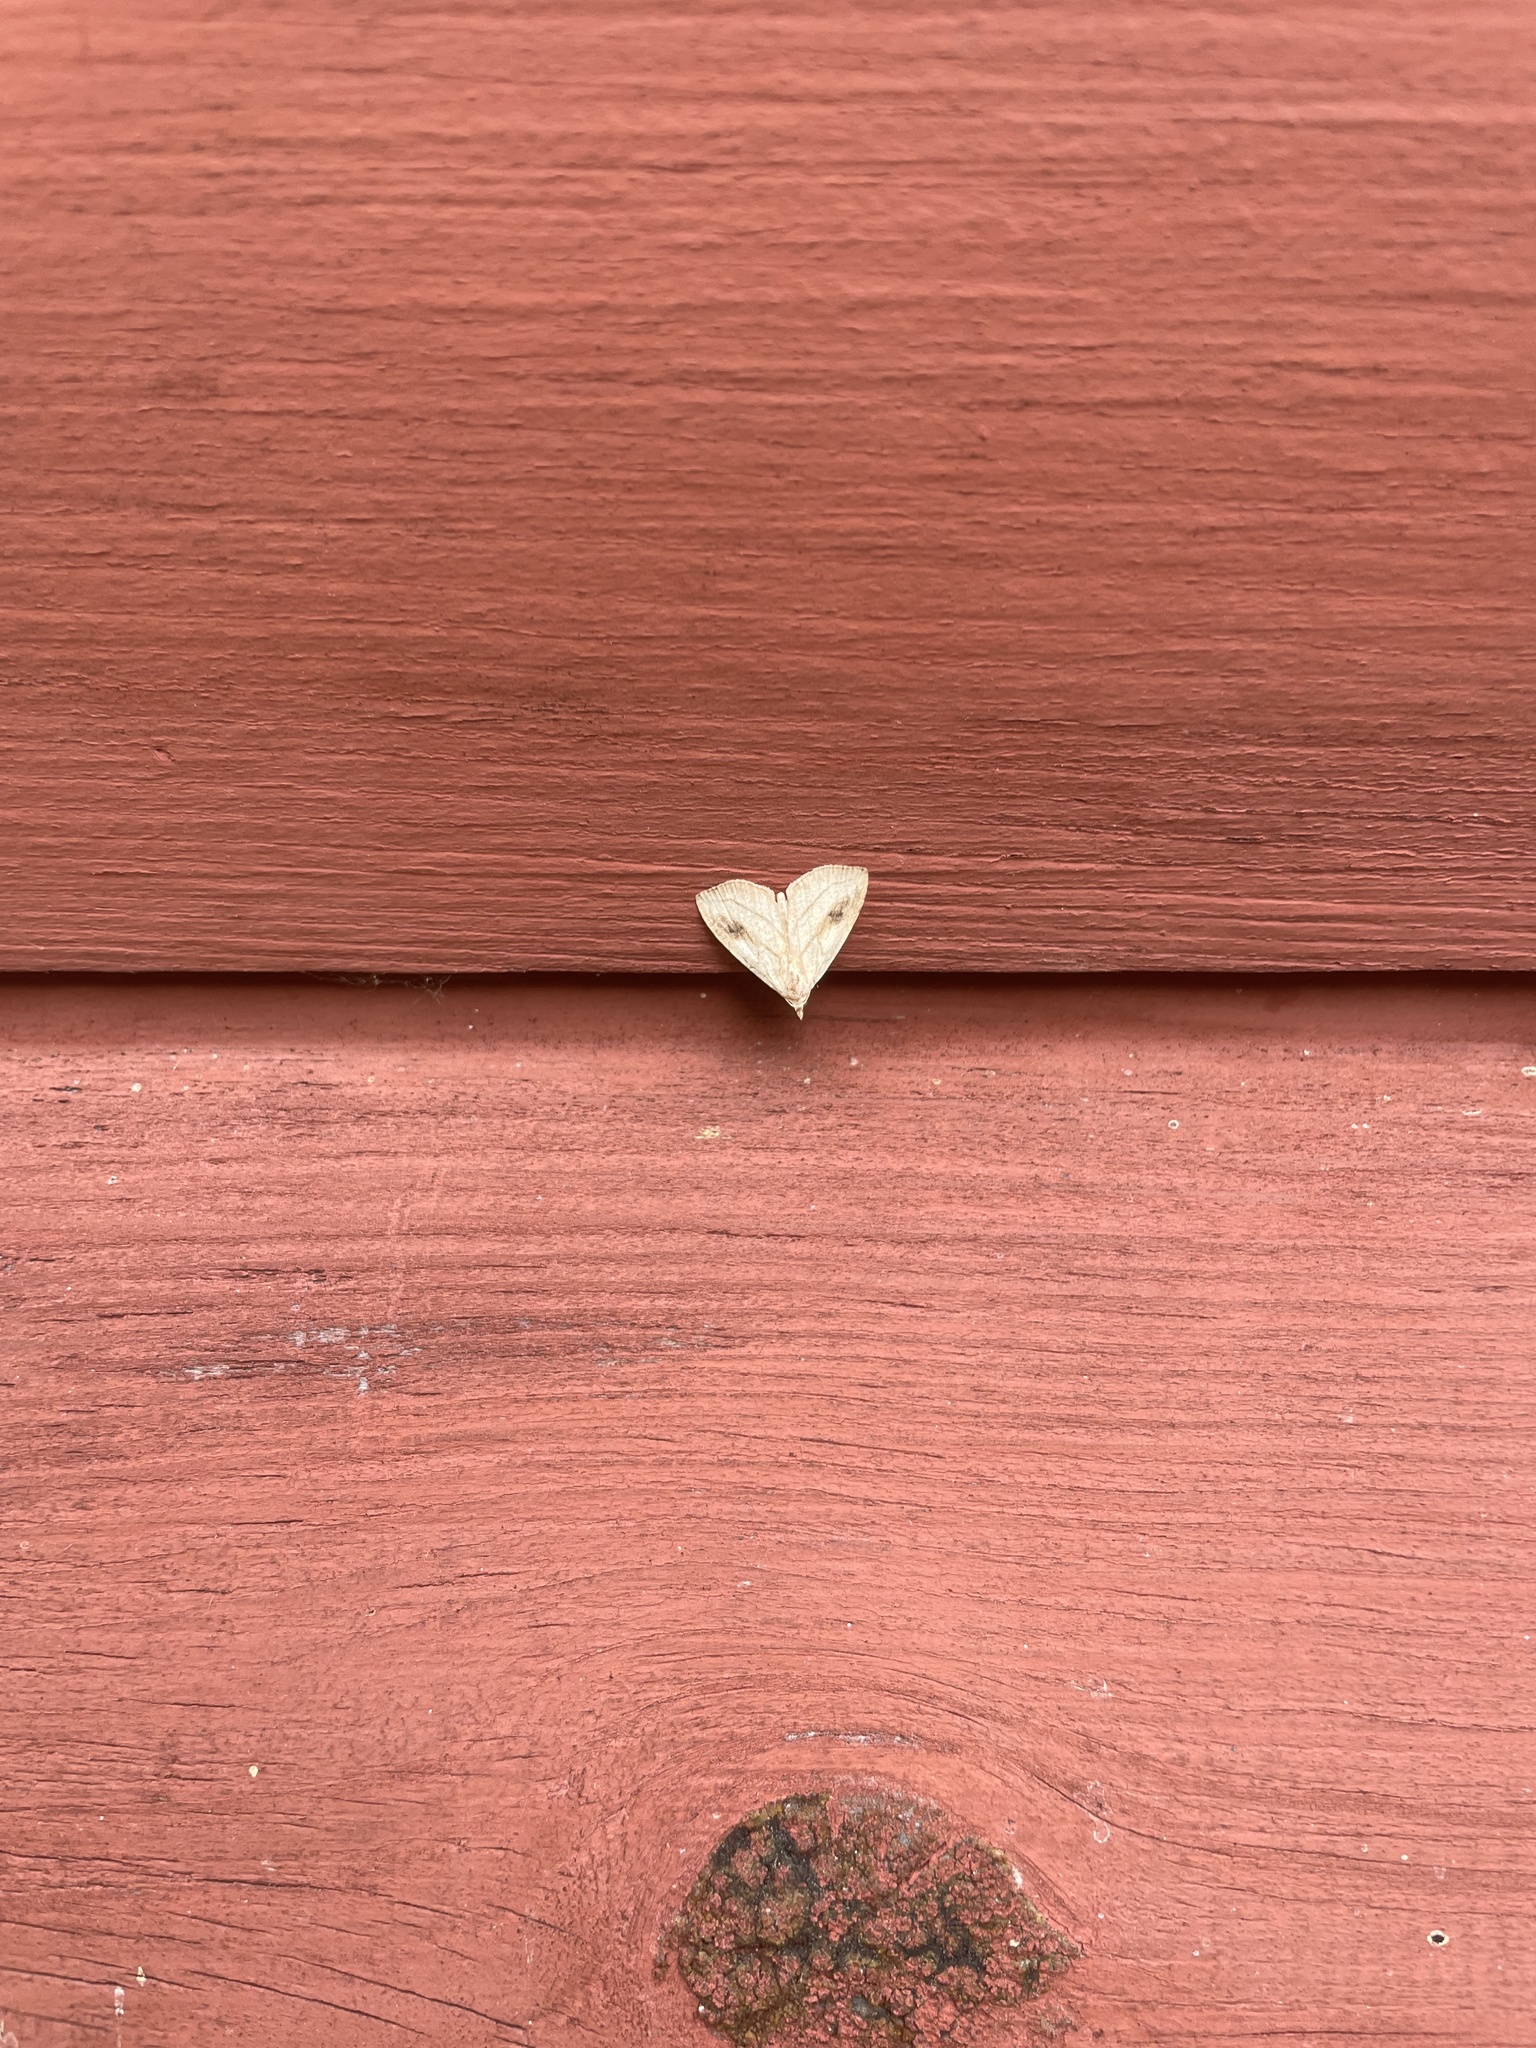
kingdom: Animalia
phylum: Arthropoda
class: Insecta
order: Lepidoptera
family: Erebidae
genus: Rivula
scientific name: Rivula propinqualis
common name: Spotted grass moth
